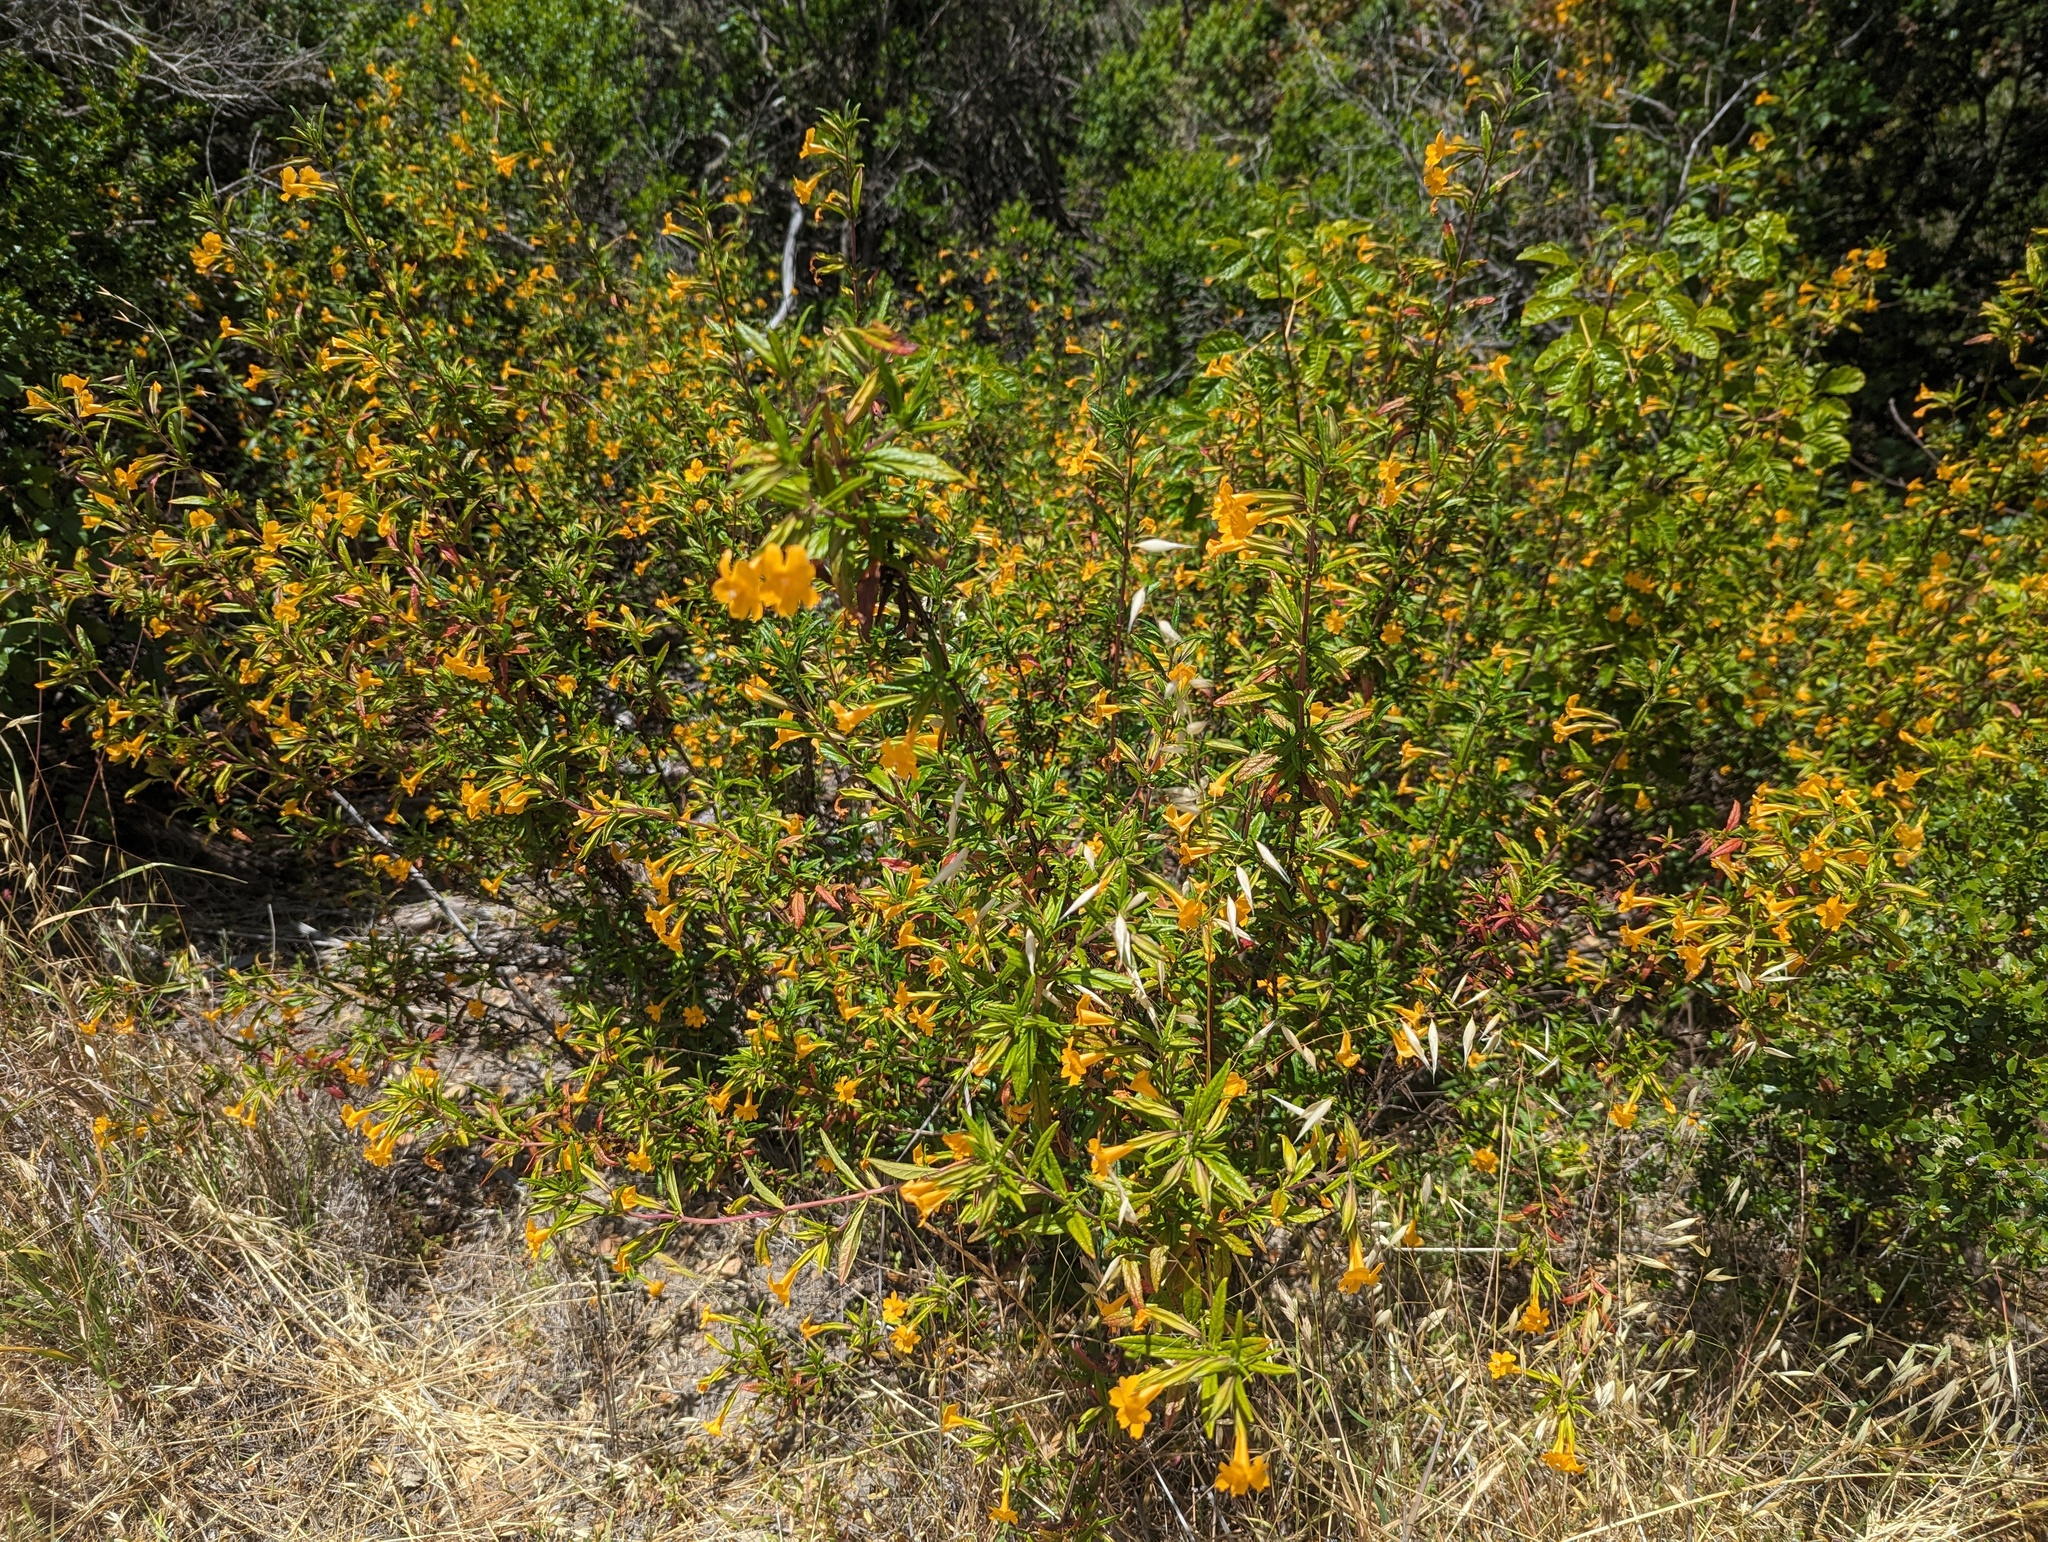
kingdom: Plantae
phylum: Tracheophyta
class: Magnoliopsida
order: Lamiales
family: Phrymaceae
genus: Diplacus
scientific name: Diplacus aurantiacus
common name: Bush monkey-flower
